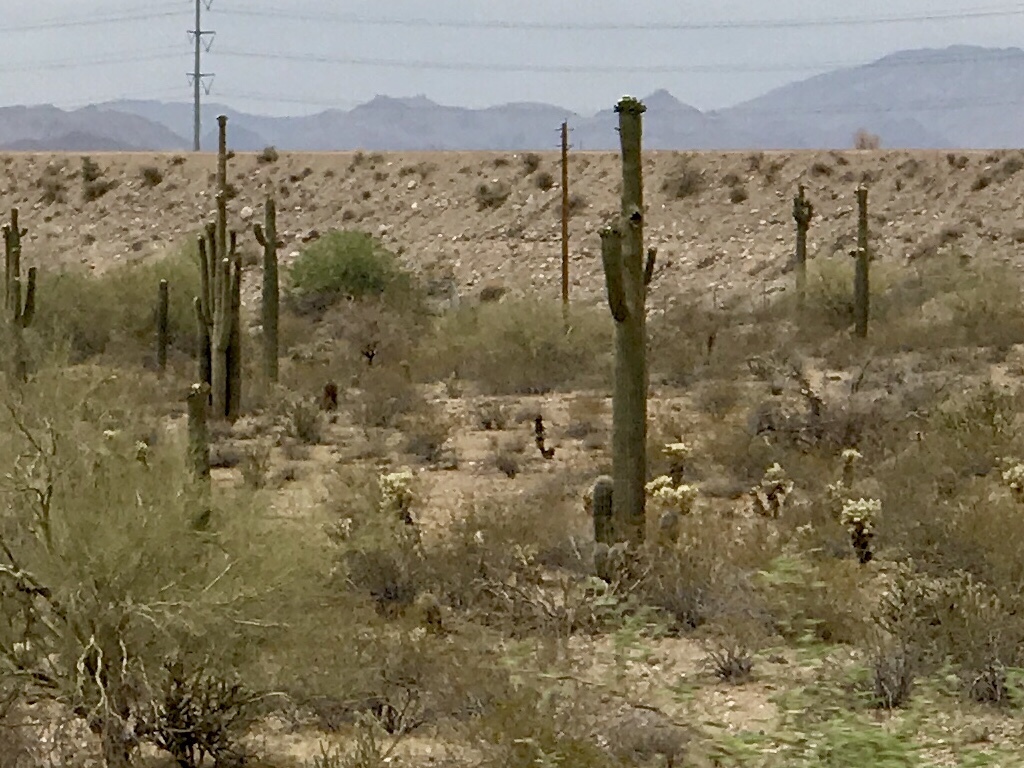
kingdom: Plantae
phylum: Tracheophyta
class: Magnoliopsida
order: Caryophyllales
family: Cactaceae
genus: Carnegiea
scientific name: Carnegiea gigantea
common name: Saguaro
